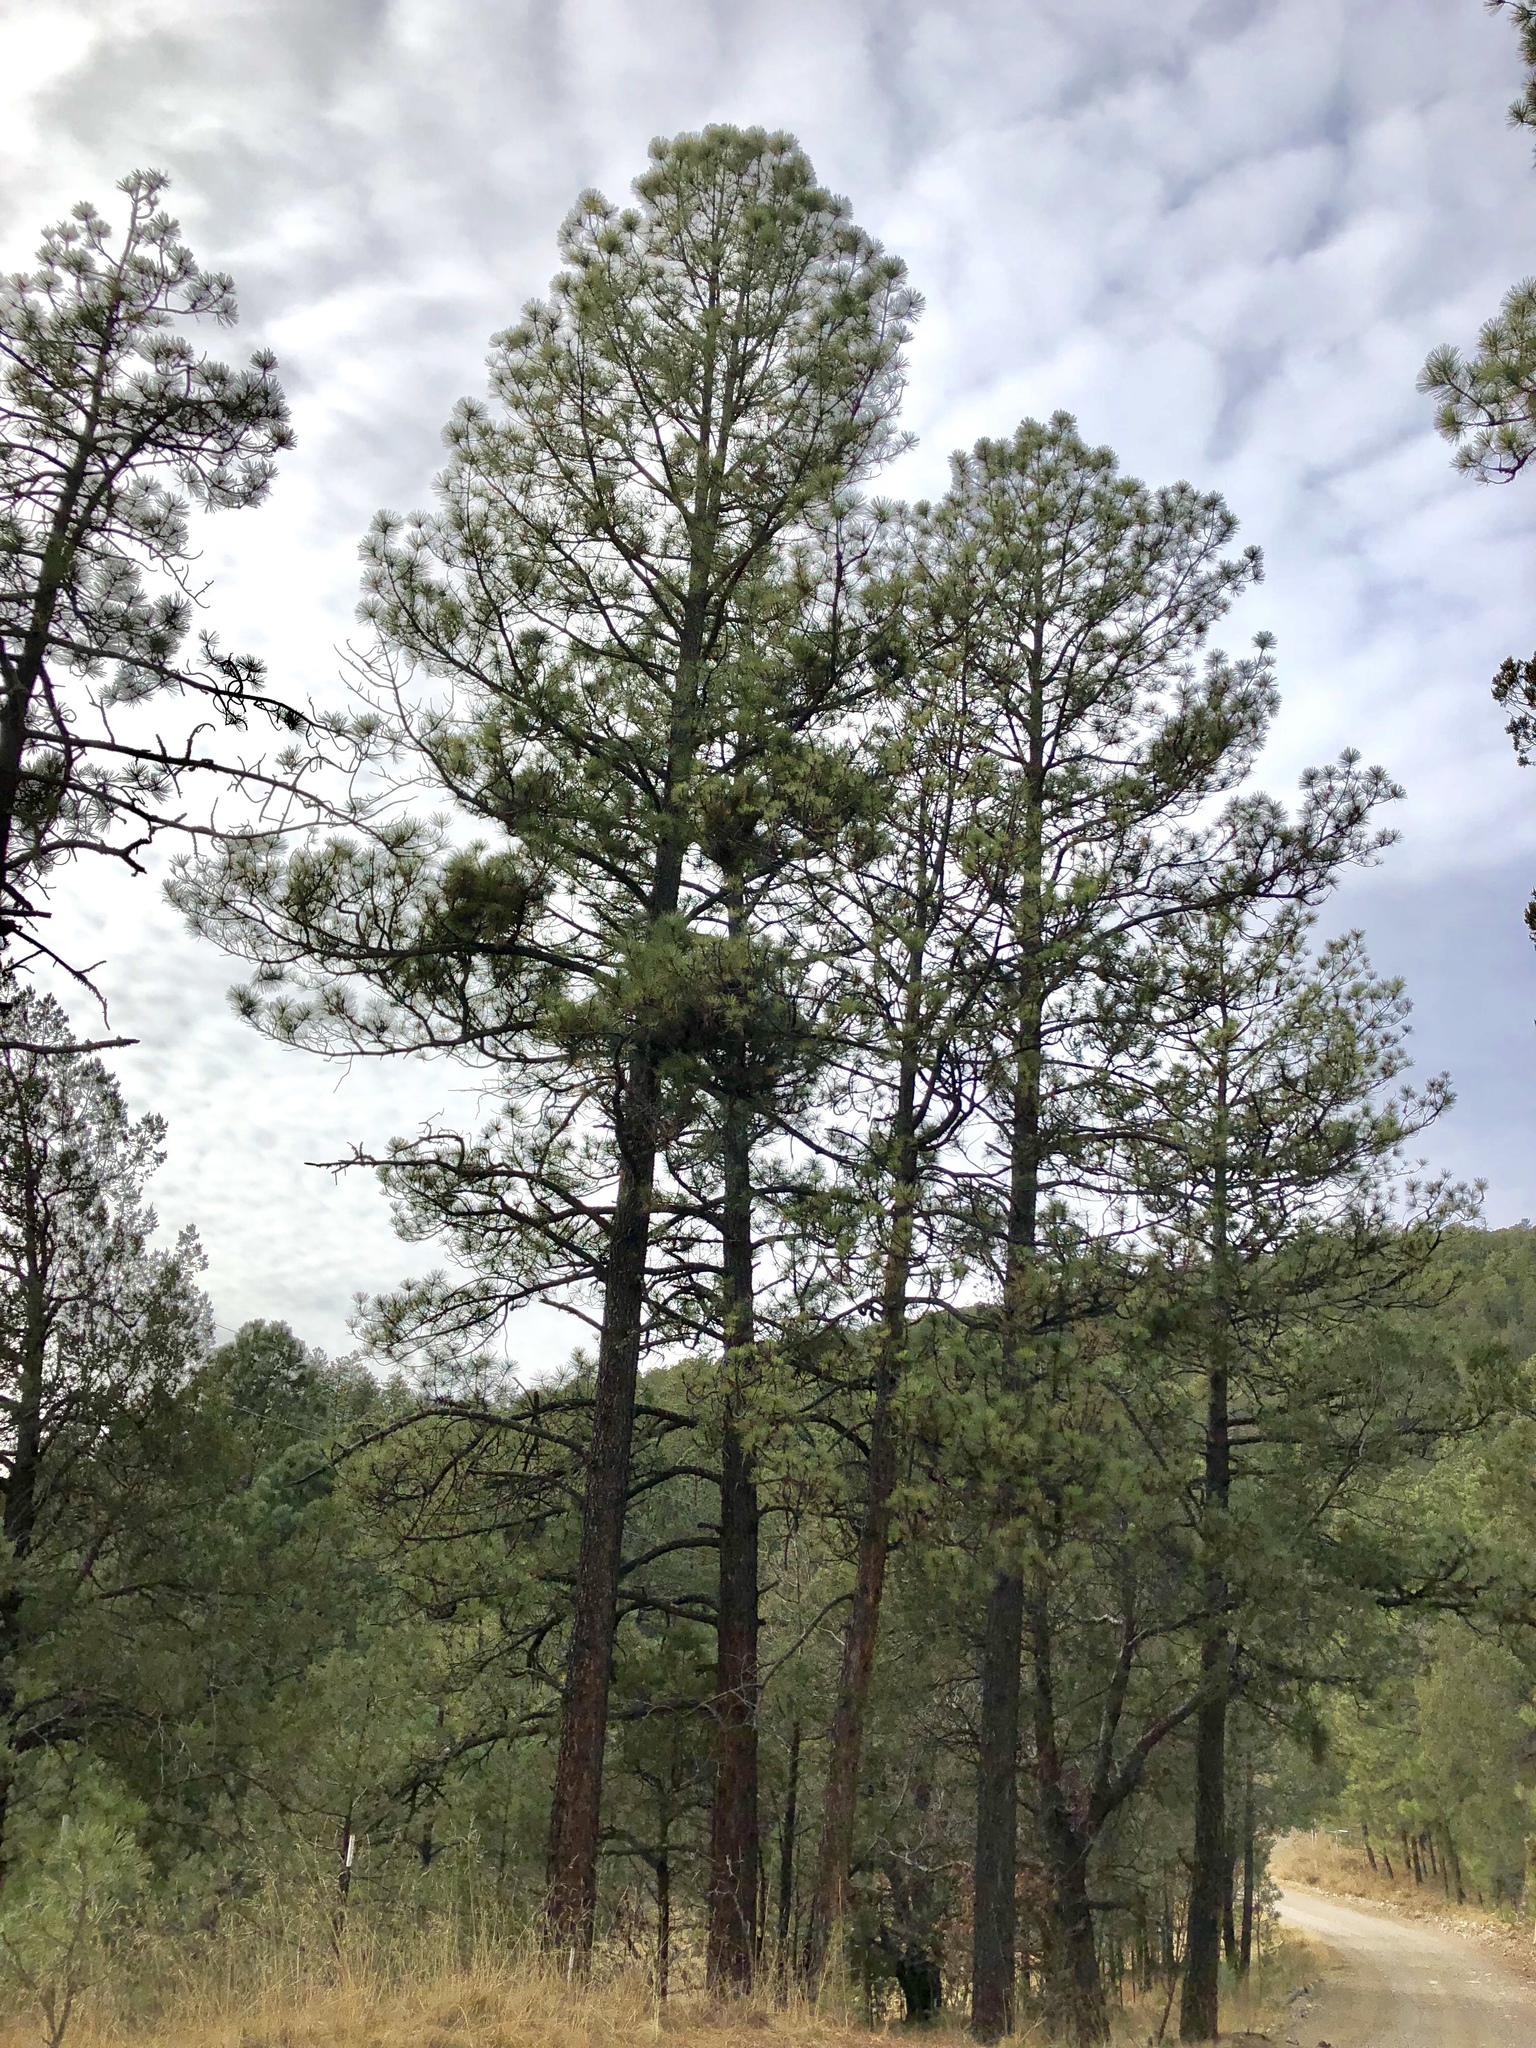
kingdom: Plantae
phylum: Tracheophyta
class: Pinopsida
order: Pinales
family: Pinaceae
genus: Pinus
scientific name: Pinus ponderosa
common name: Western yellow-pine
